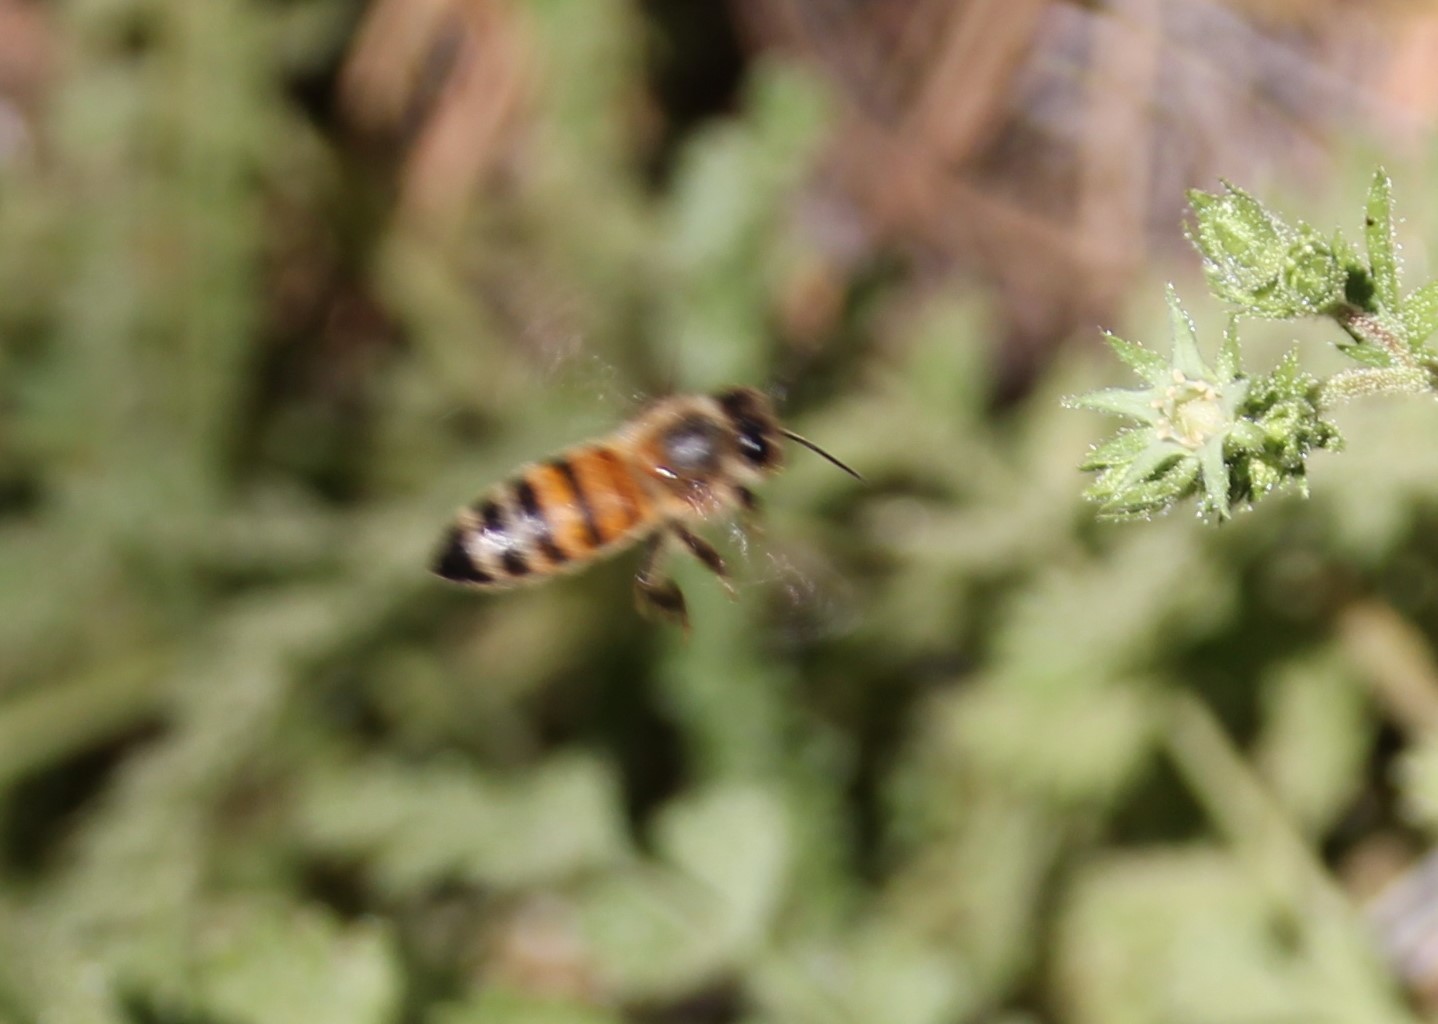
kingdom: Animalia
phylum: Arthropoda
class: Insecta
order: Hymenoptera
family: Apidae
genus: Apis
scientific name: Apis mellifera
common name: Honey bee
